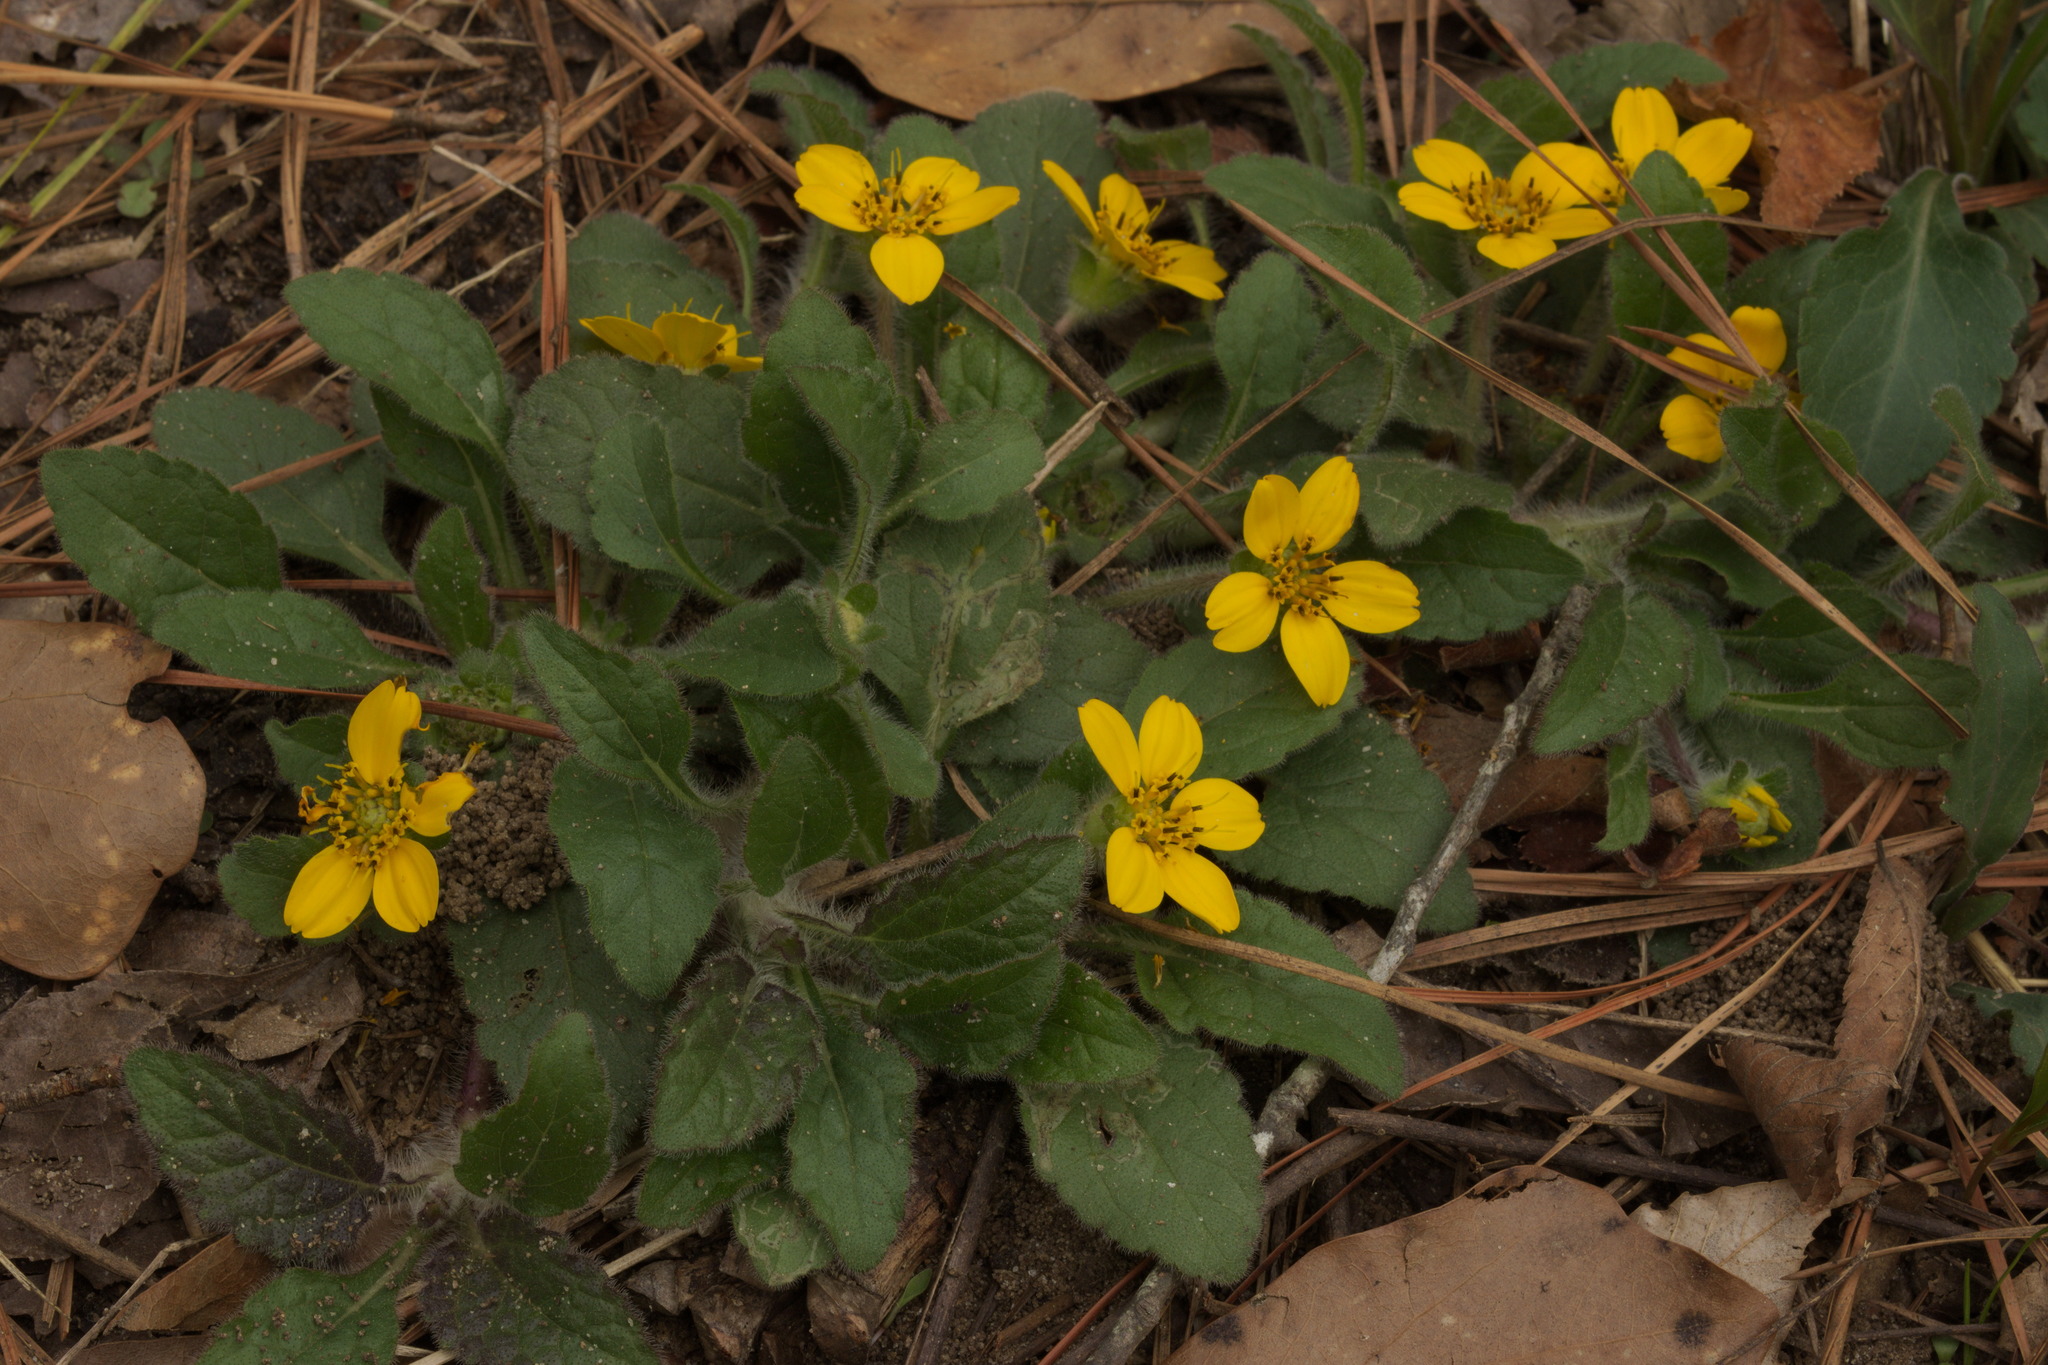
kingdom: Plantae
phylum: Tracheophyta
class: Magnoliopsida
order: Asterales
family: Asteraceae
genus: Chrysogonum
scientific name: Chrysogonum virginianum
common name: Golden-knee
